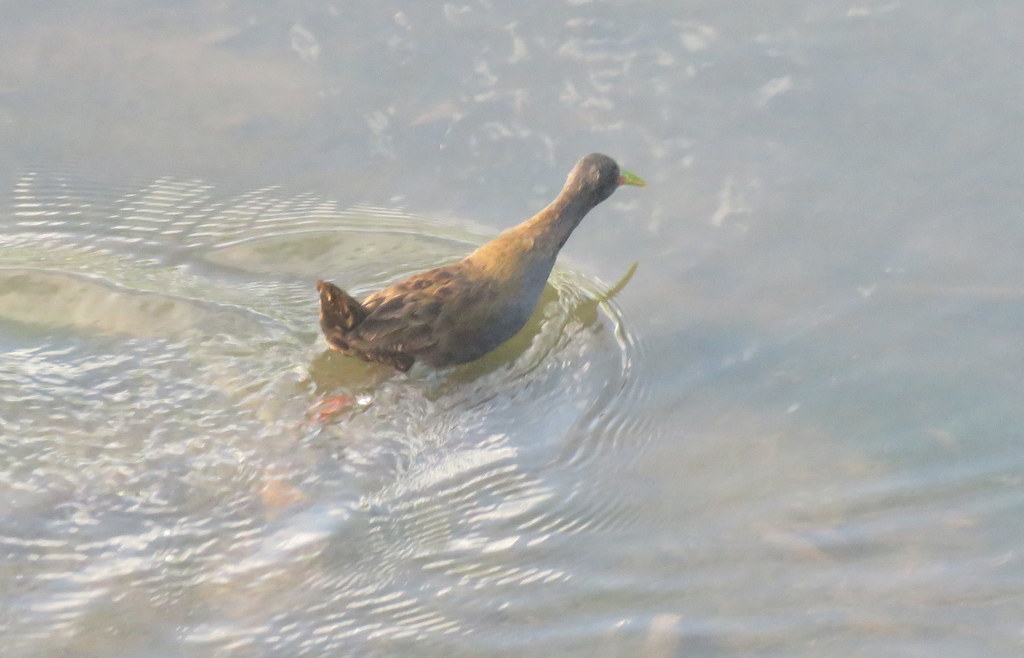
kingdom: Animalia
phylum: Chordata
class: Aves
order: Gruiformes
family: Rallidae
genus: Pardirallus
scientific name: Pardirallus sanguinolentus
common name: Plumbeous rail
